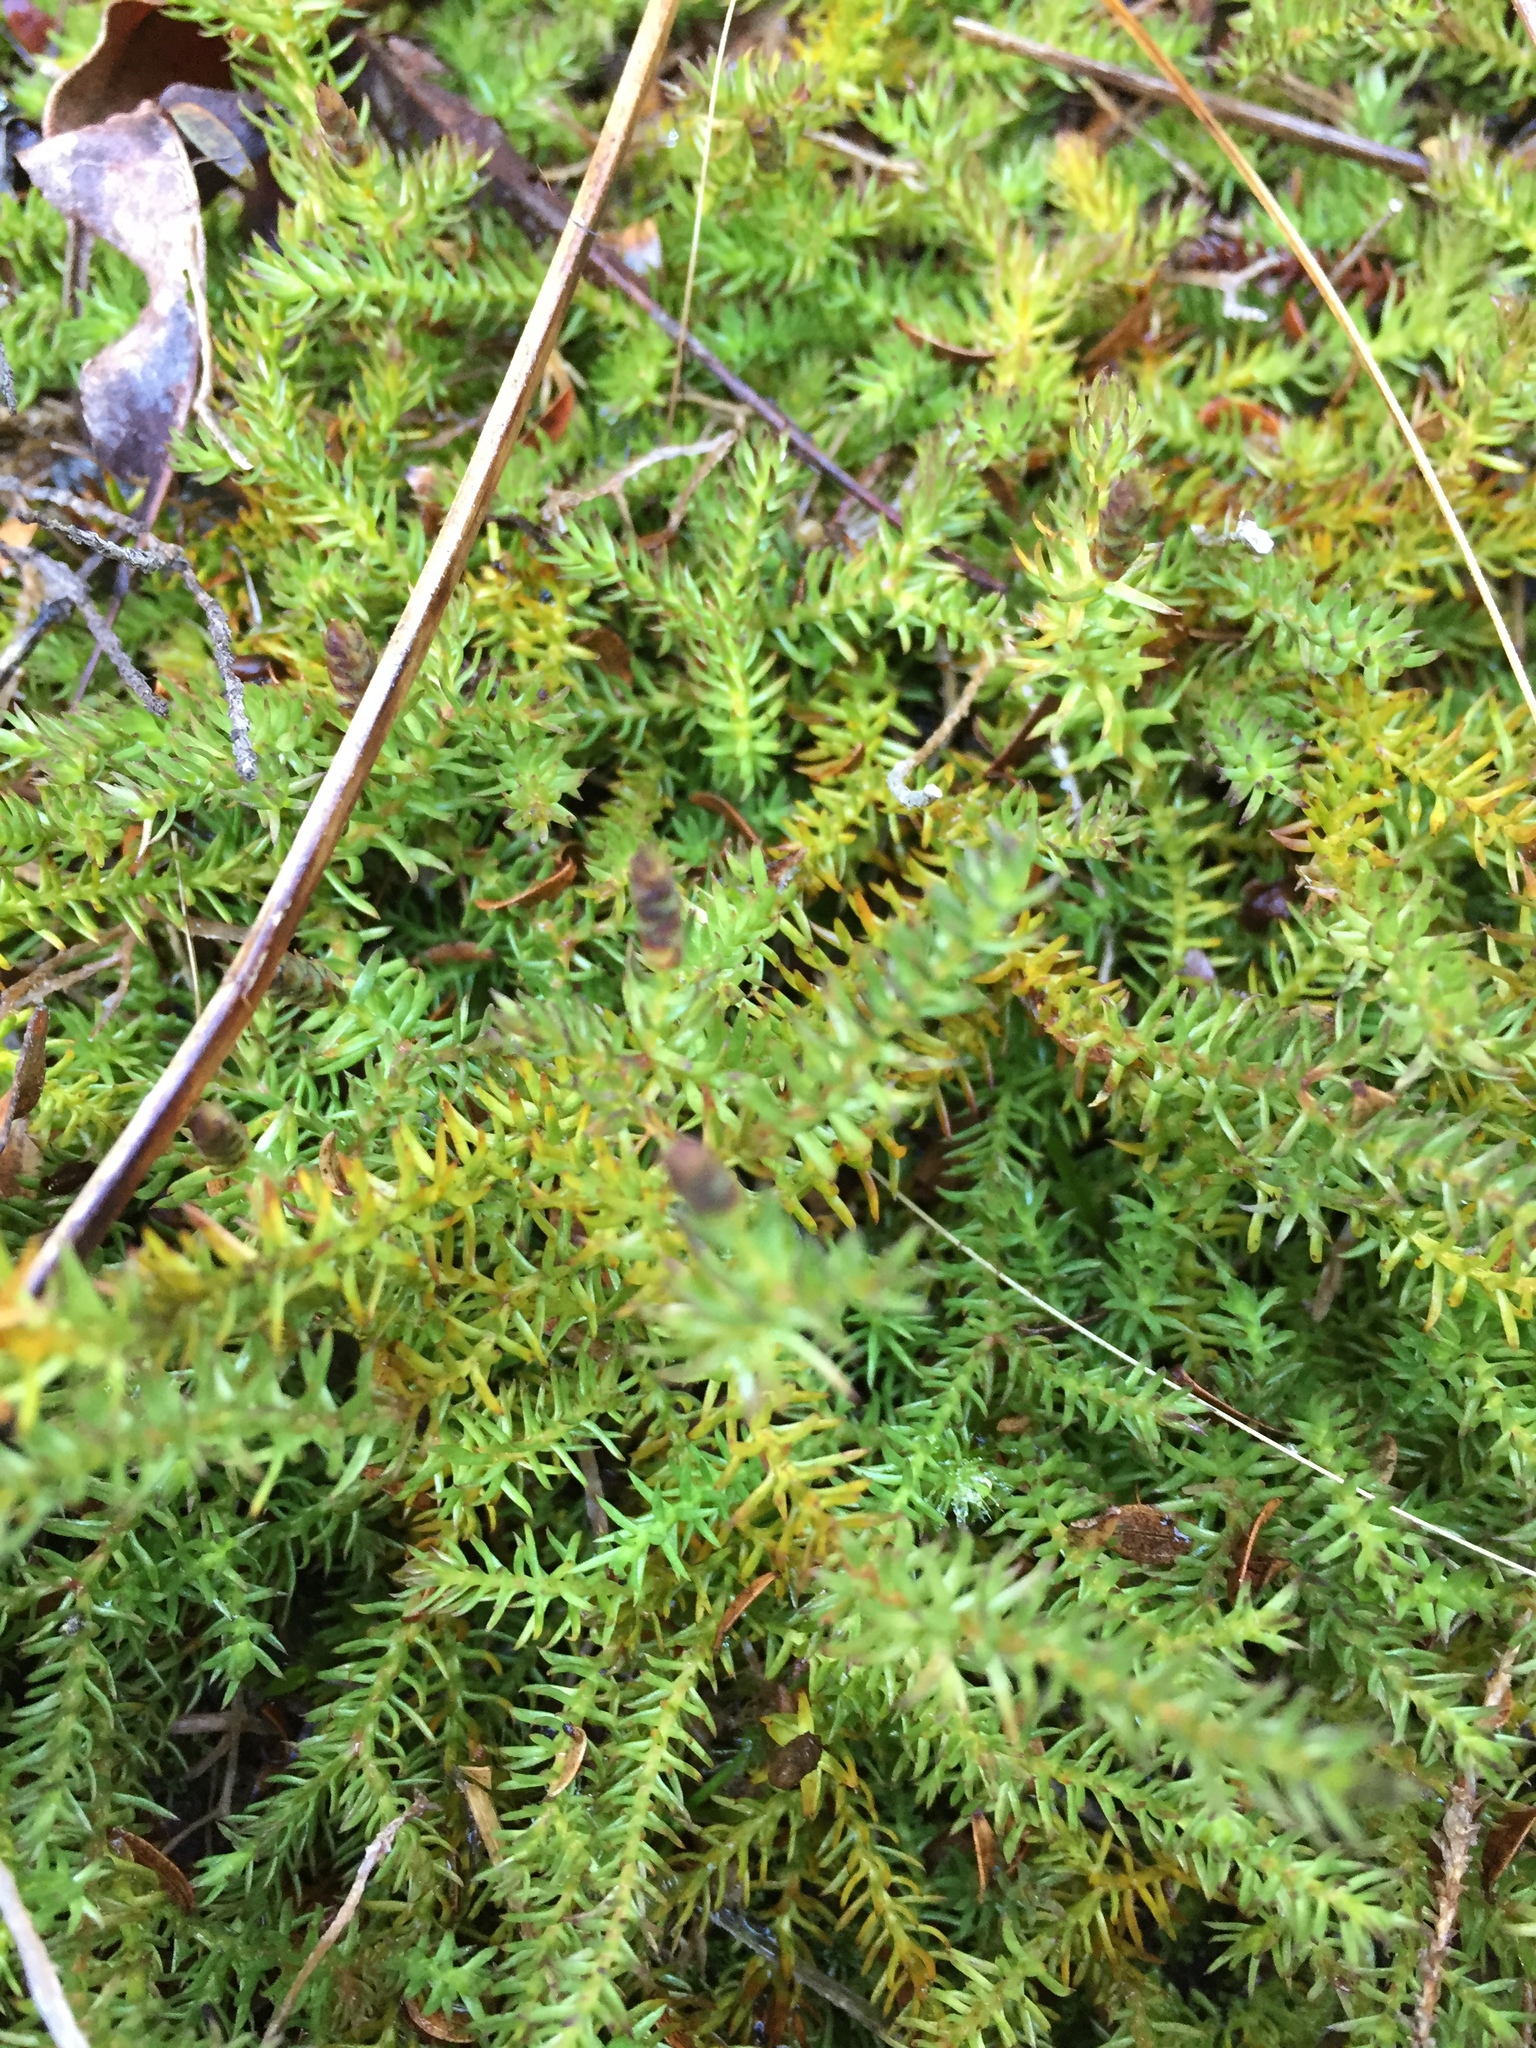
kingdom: Plantae
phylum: Tracheophyta
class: Lycopodiopsida
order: Lycopodiales
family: Lycopodiaceae
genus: Lateristachys
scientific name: Lateristachys diffusa
